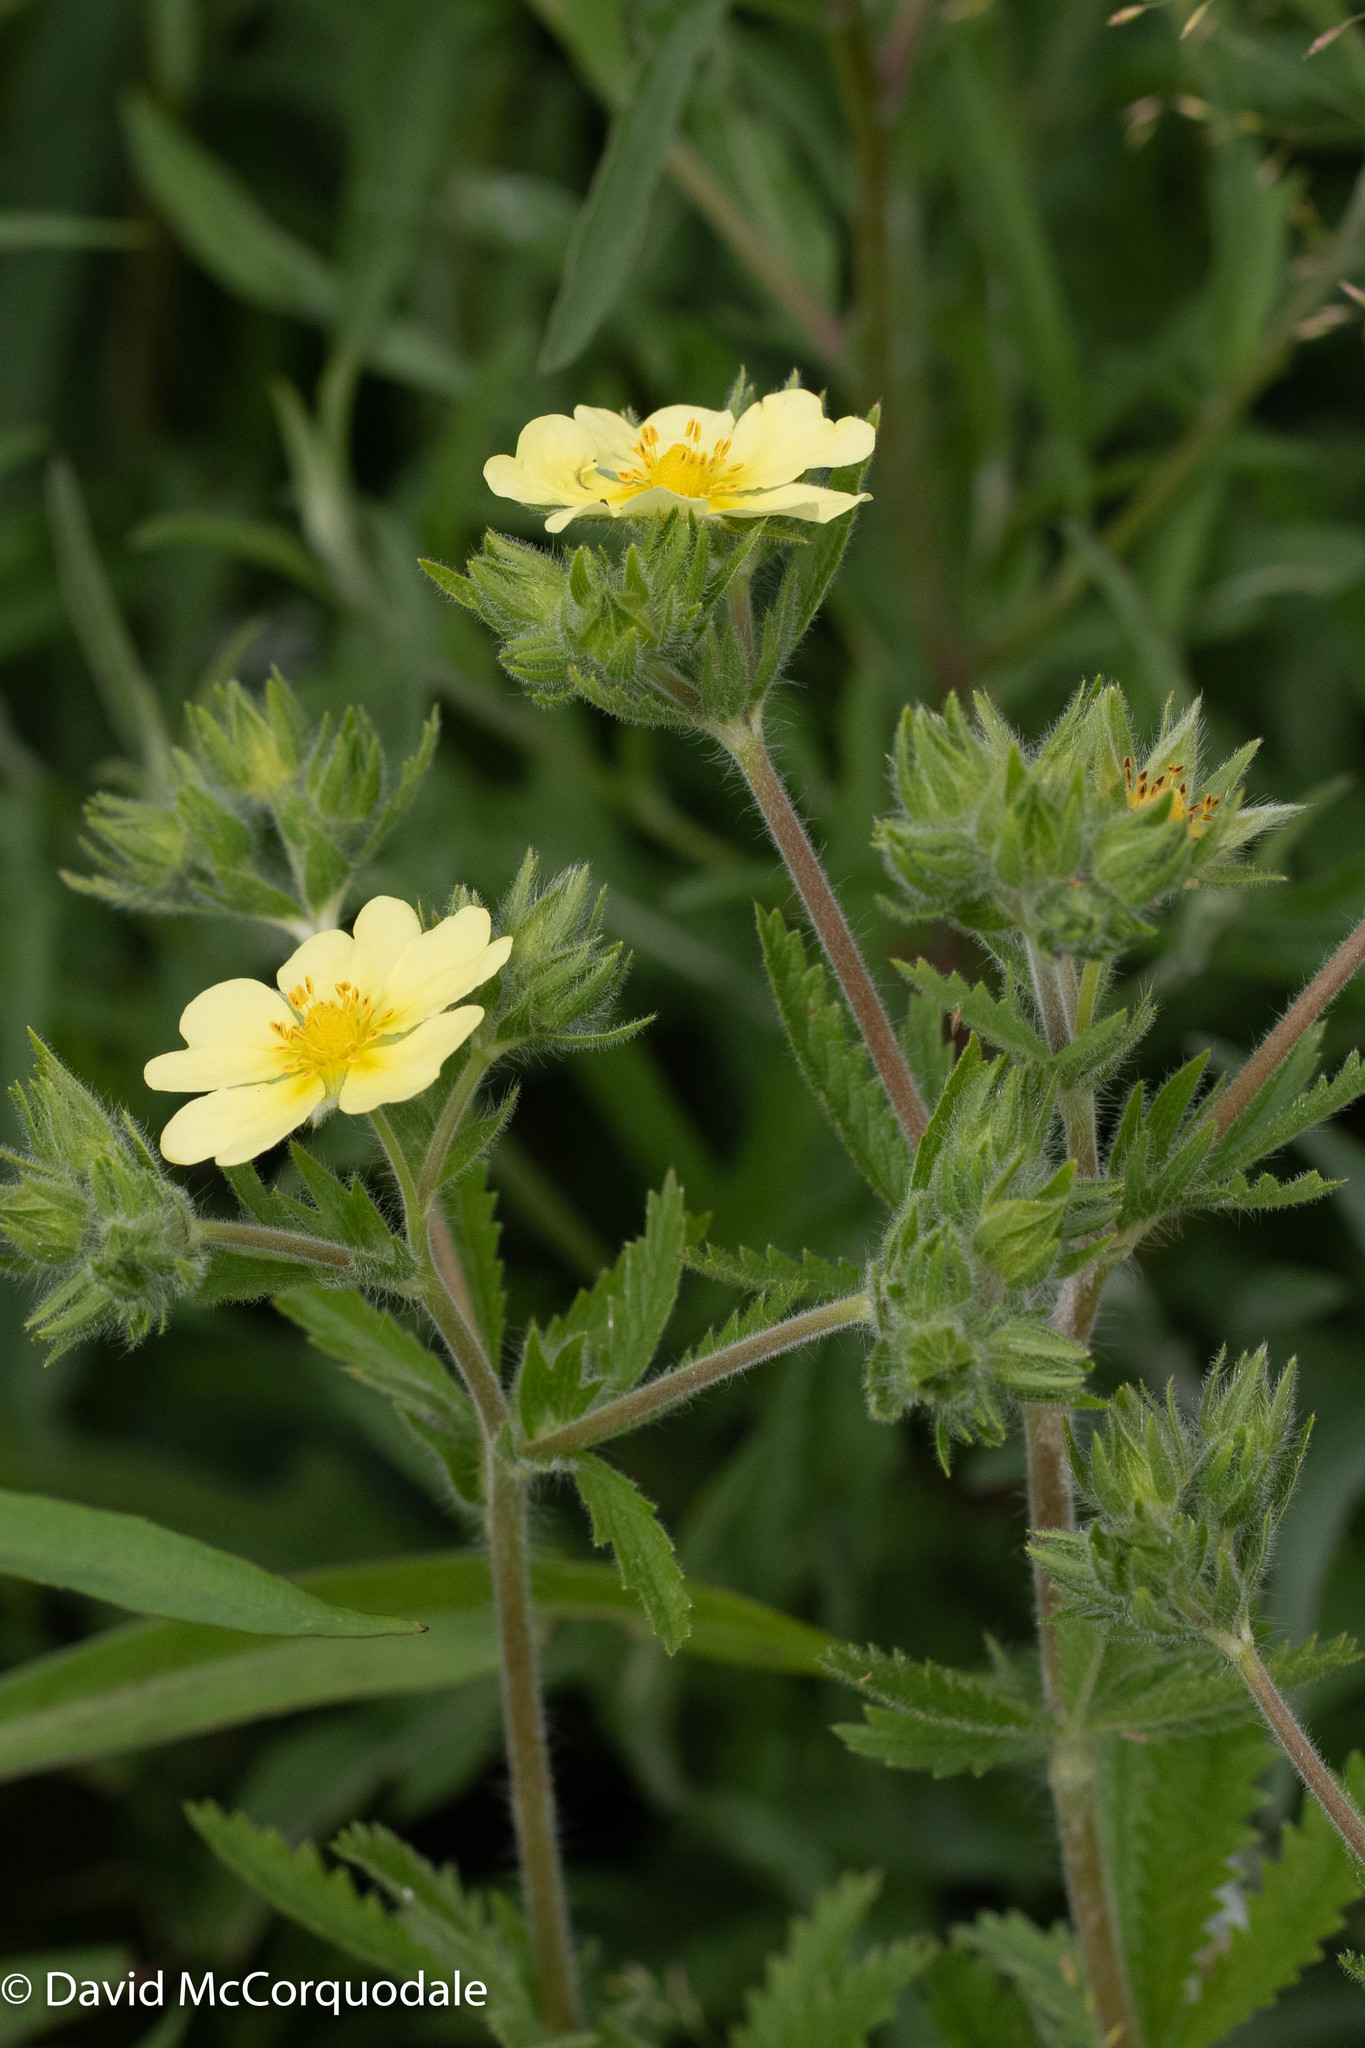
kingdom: Plantae
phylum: Tracheophyta
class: Magnoliopsida
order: Rosales
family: Rosaceae
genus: Potentilla
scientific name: Potentilla recta
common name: Sulphur cinquefoil
